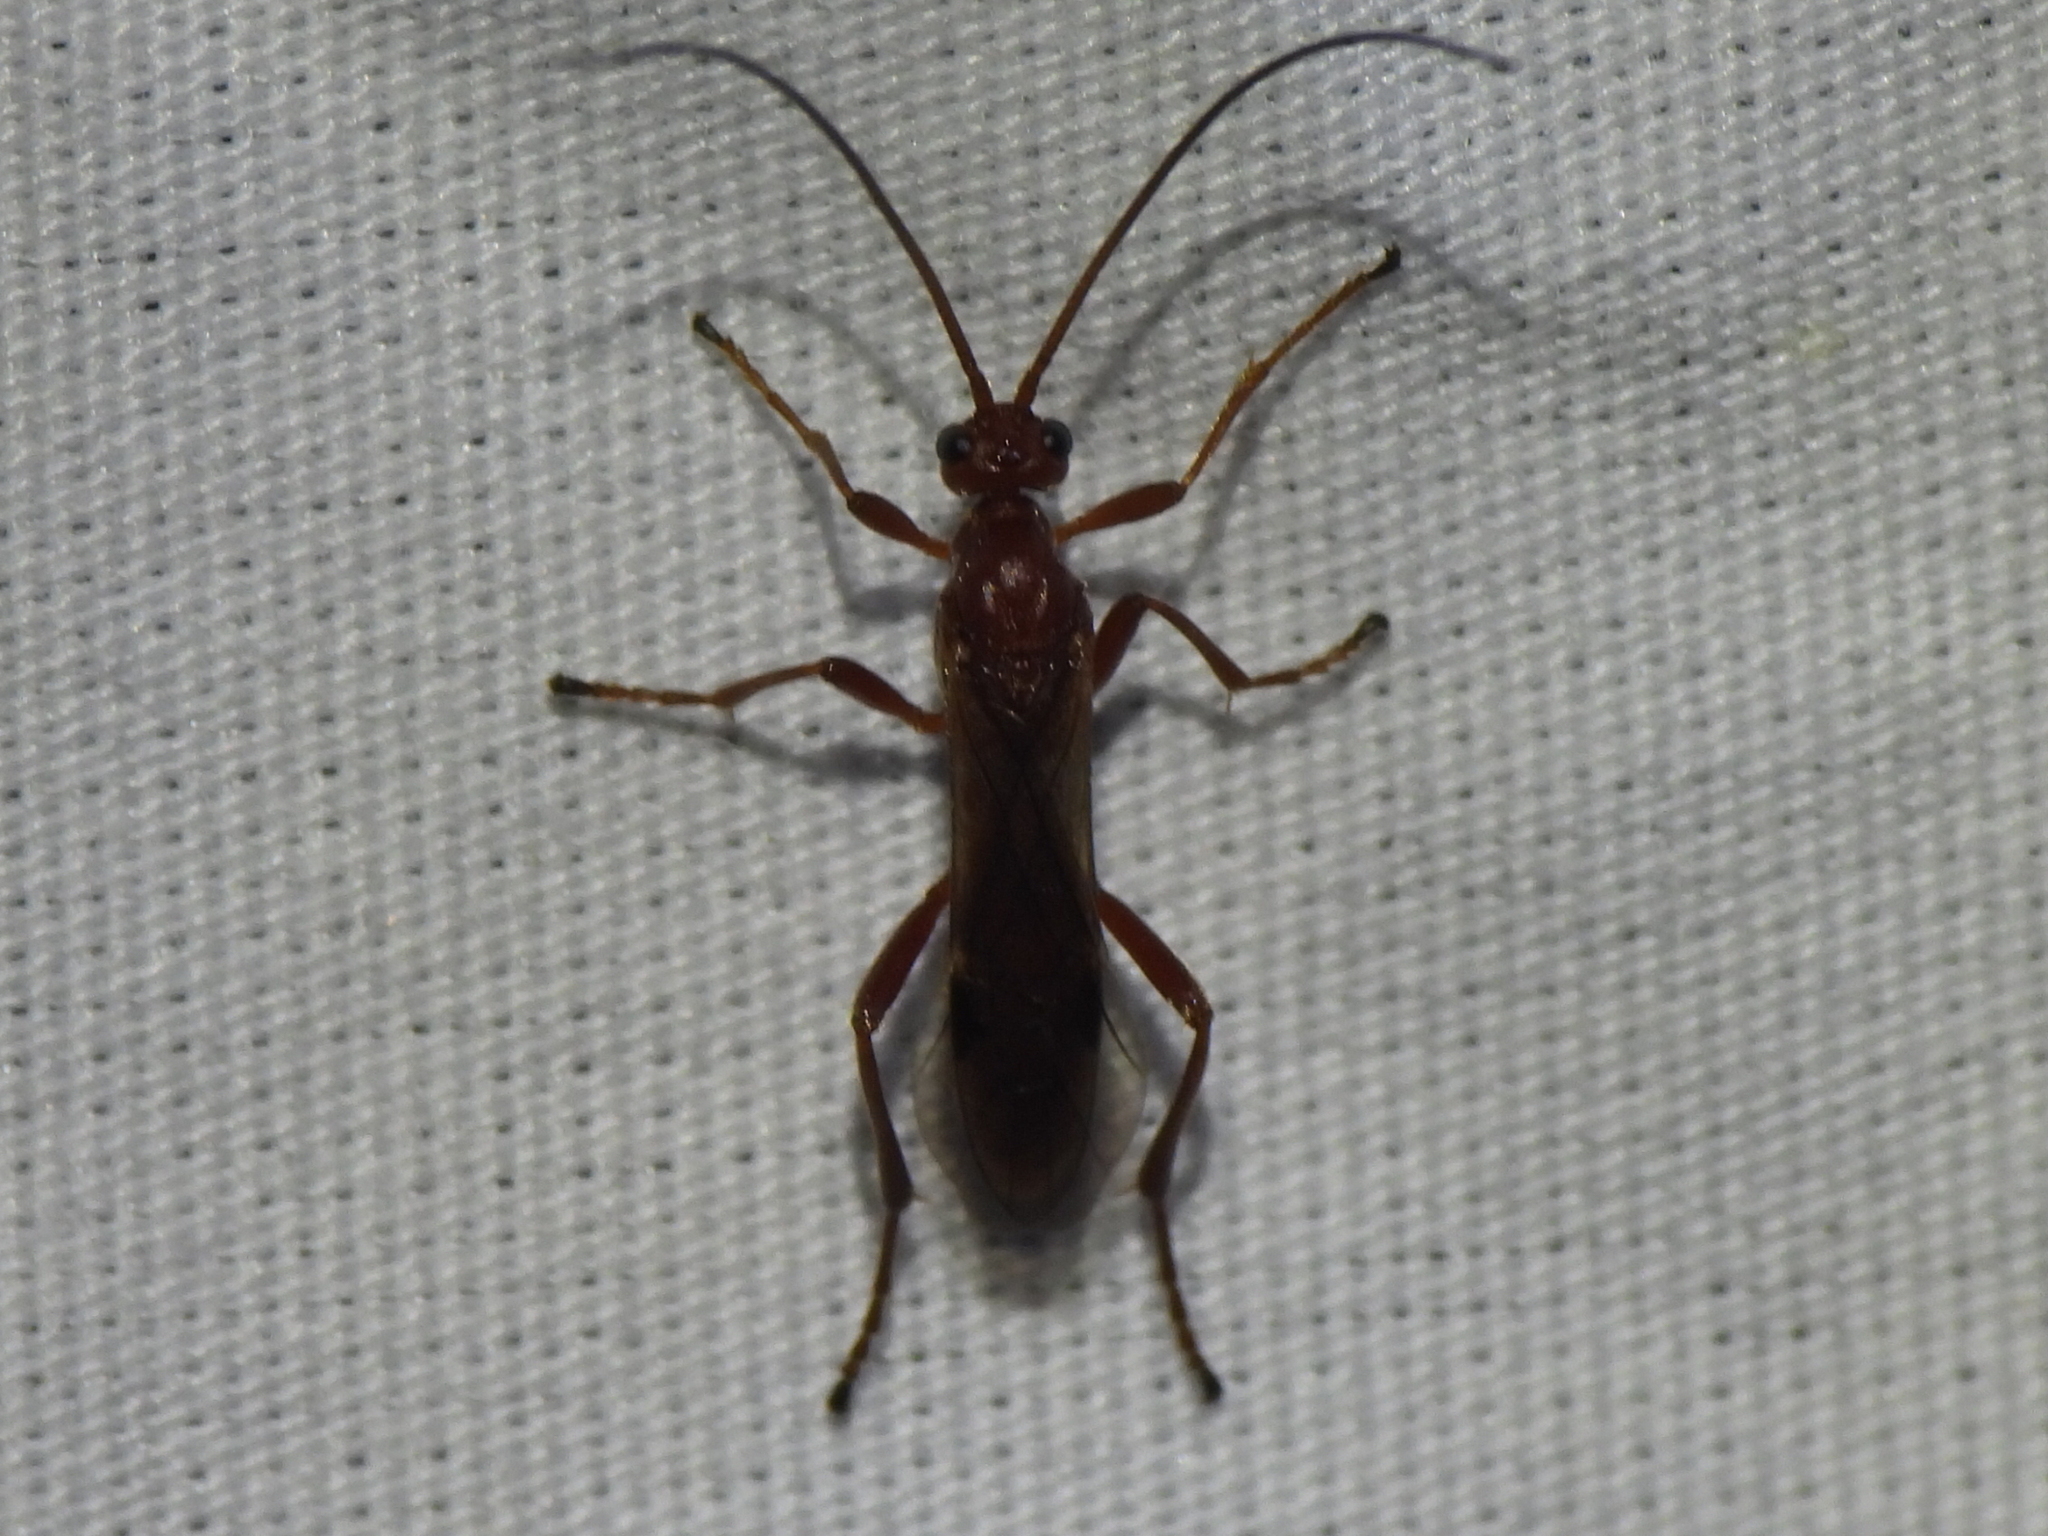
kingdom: Animalia
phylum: Arthropoda
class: Insecta
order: Hymenoptera
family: Braconidae
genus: Aleiodes
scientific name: Aleiodes politiceps
